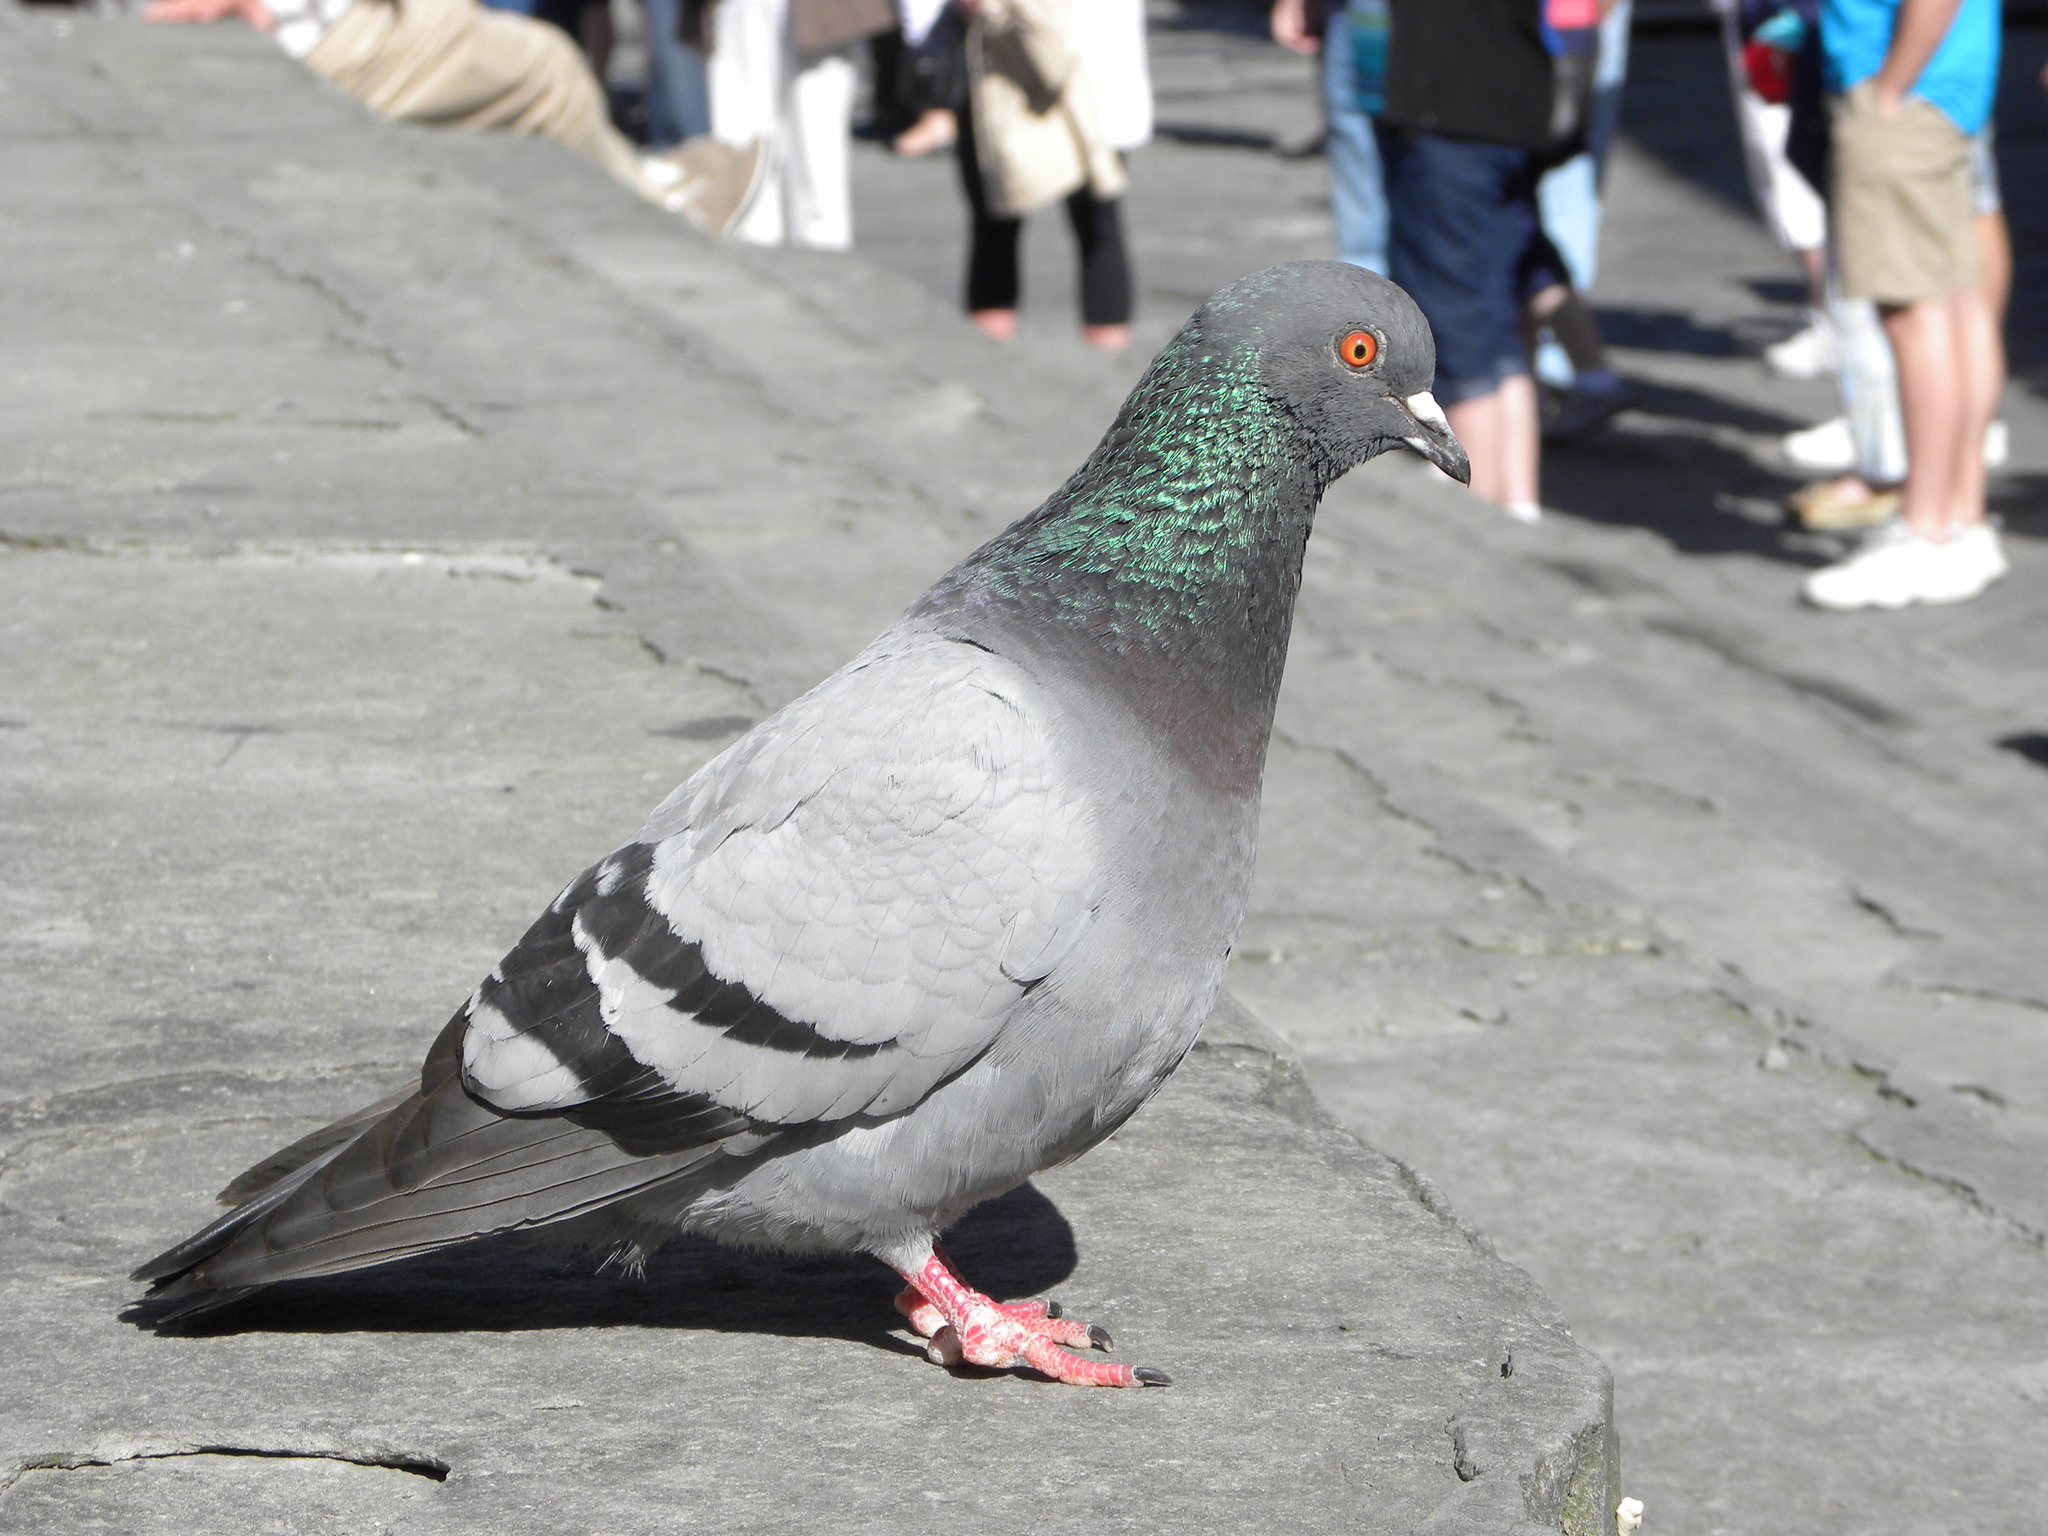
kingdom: Animalia
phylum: Chordata
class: Aves
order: Columbiformes
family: Columbidae
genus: Columba
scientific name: Columba livia
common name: Rock pigeon
